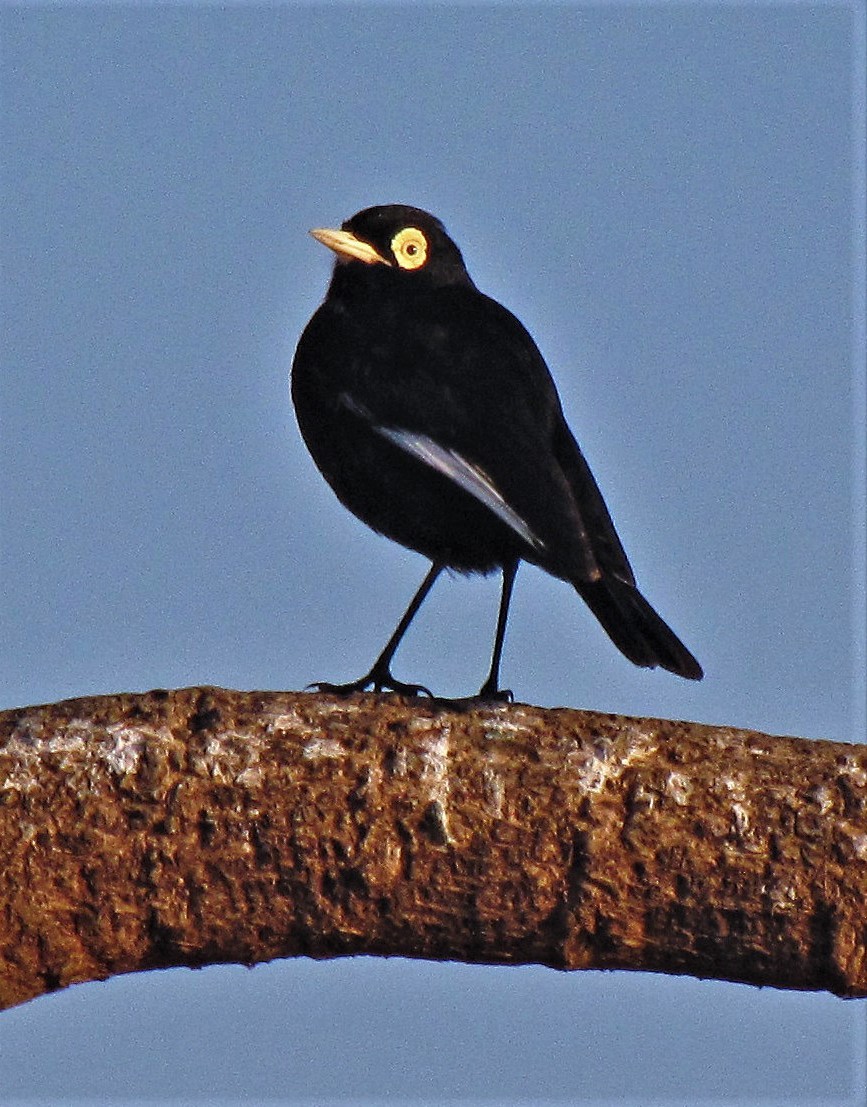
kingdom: Animalia
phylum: Chordata
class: Aves
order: Passeriformes
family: Tyrannidae
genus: Hymenops
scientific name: Hymenops perspicillatus
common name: Spectacled tyrant
